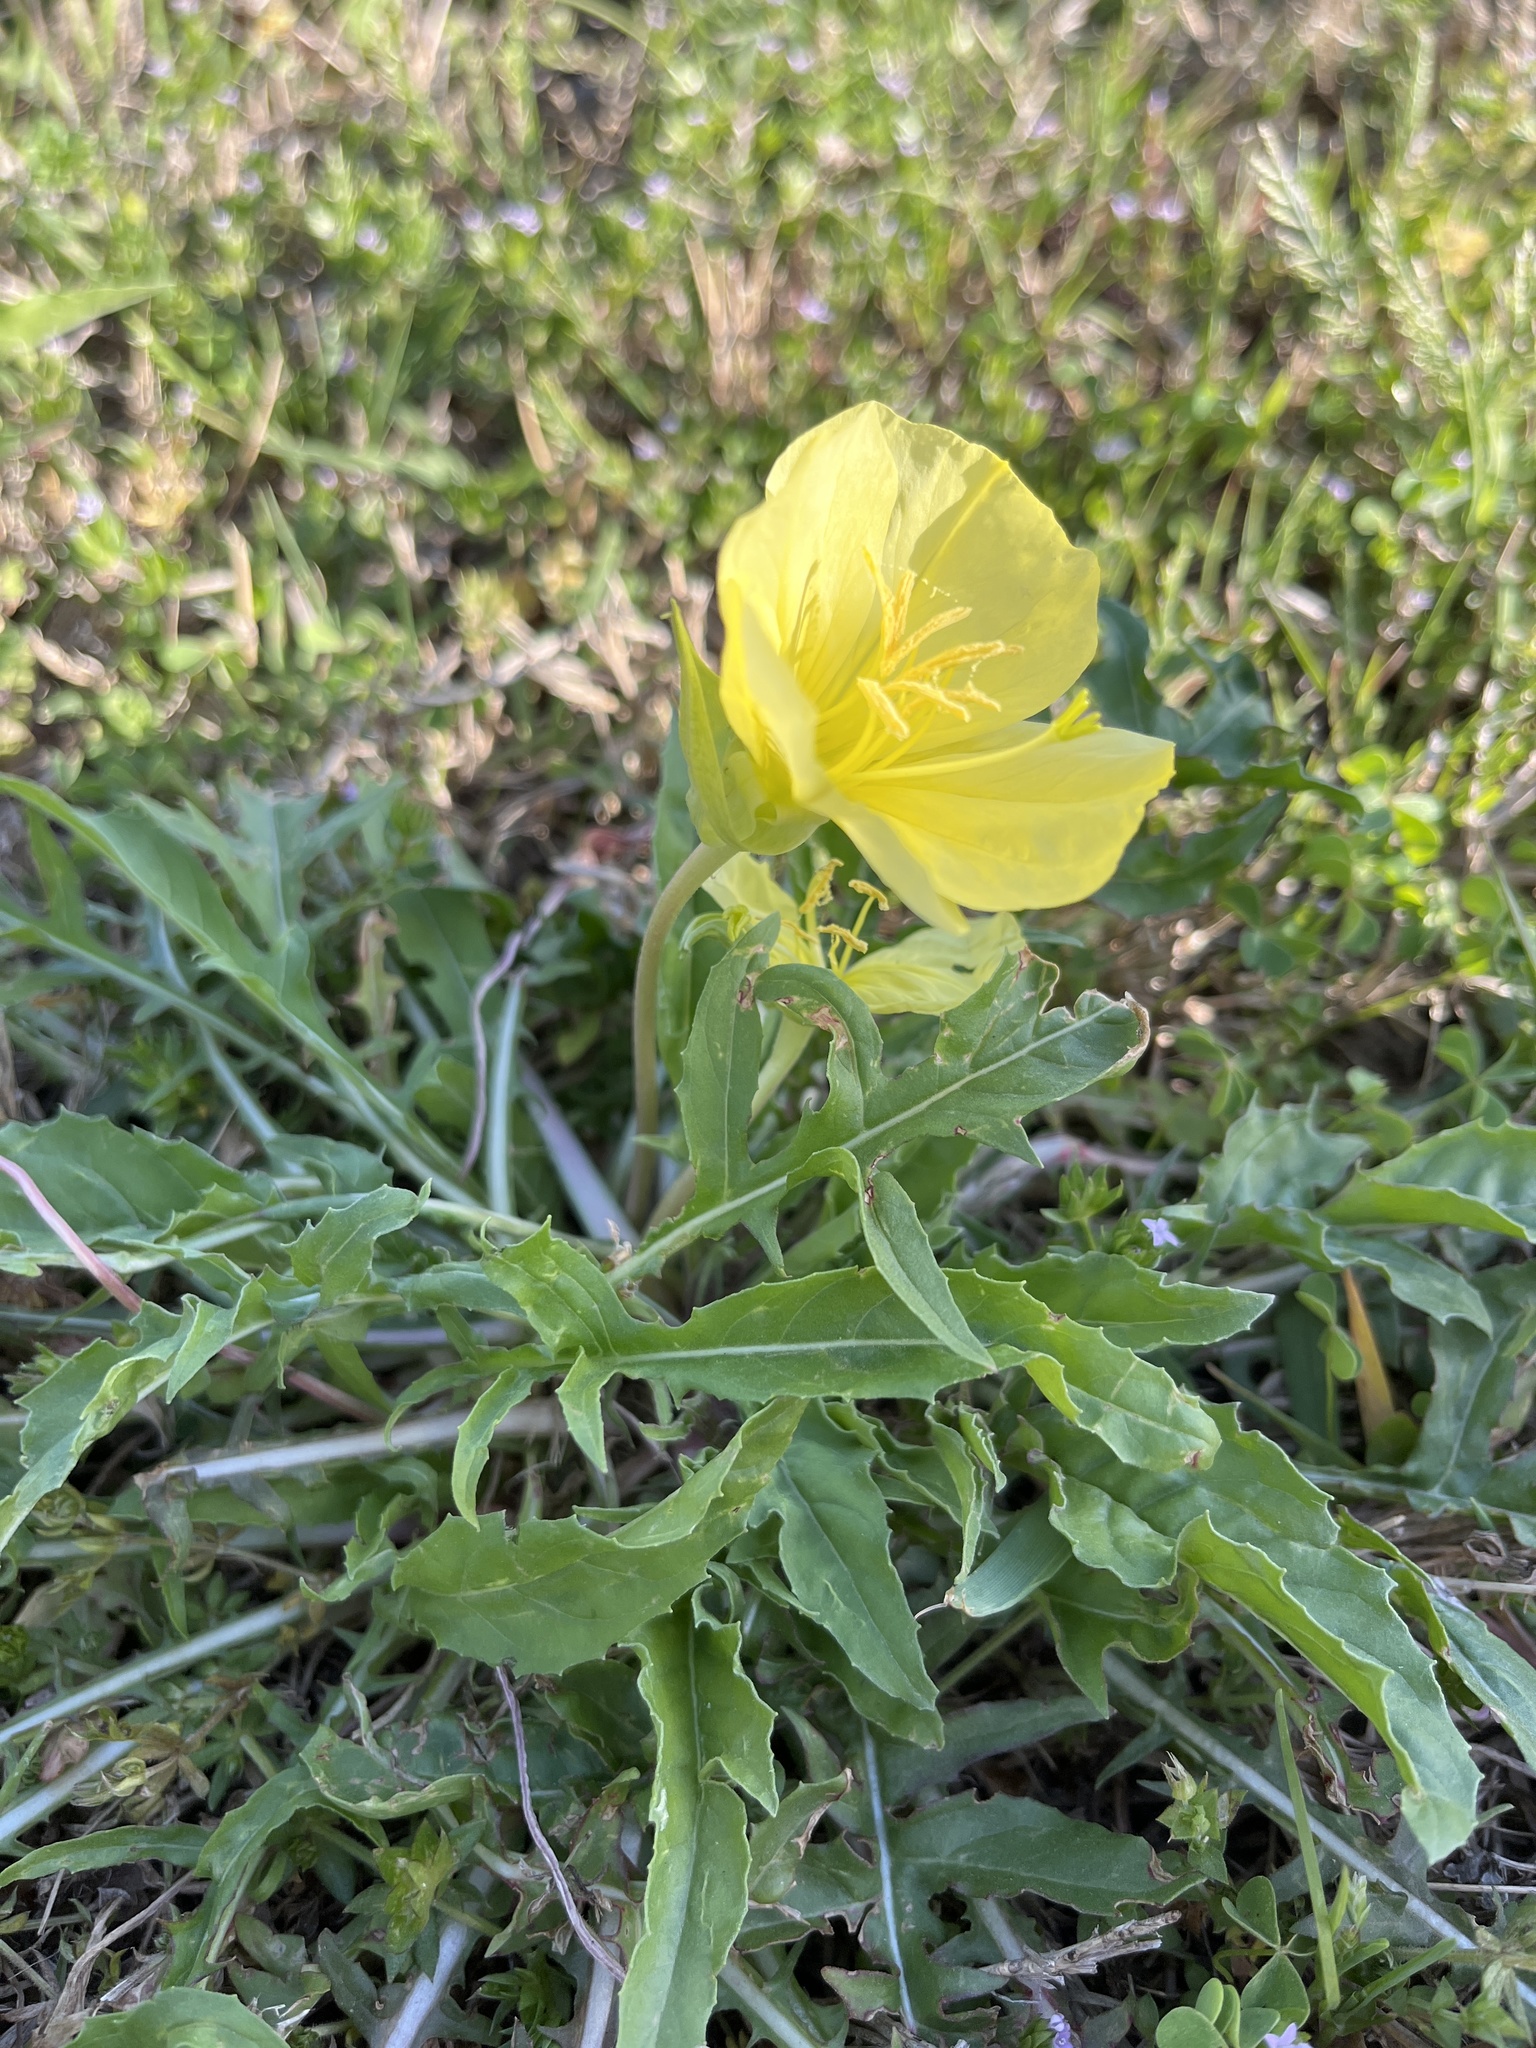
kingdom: Plantae
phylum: Tracheophyta
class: Magnoliopsida
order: Myrtales
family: Onagraceae
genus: Oenothera
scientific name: Oenothera triloba
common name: Sessile evening-primrose
